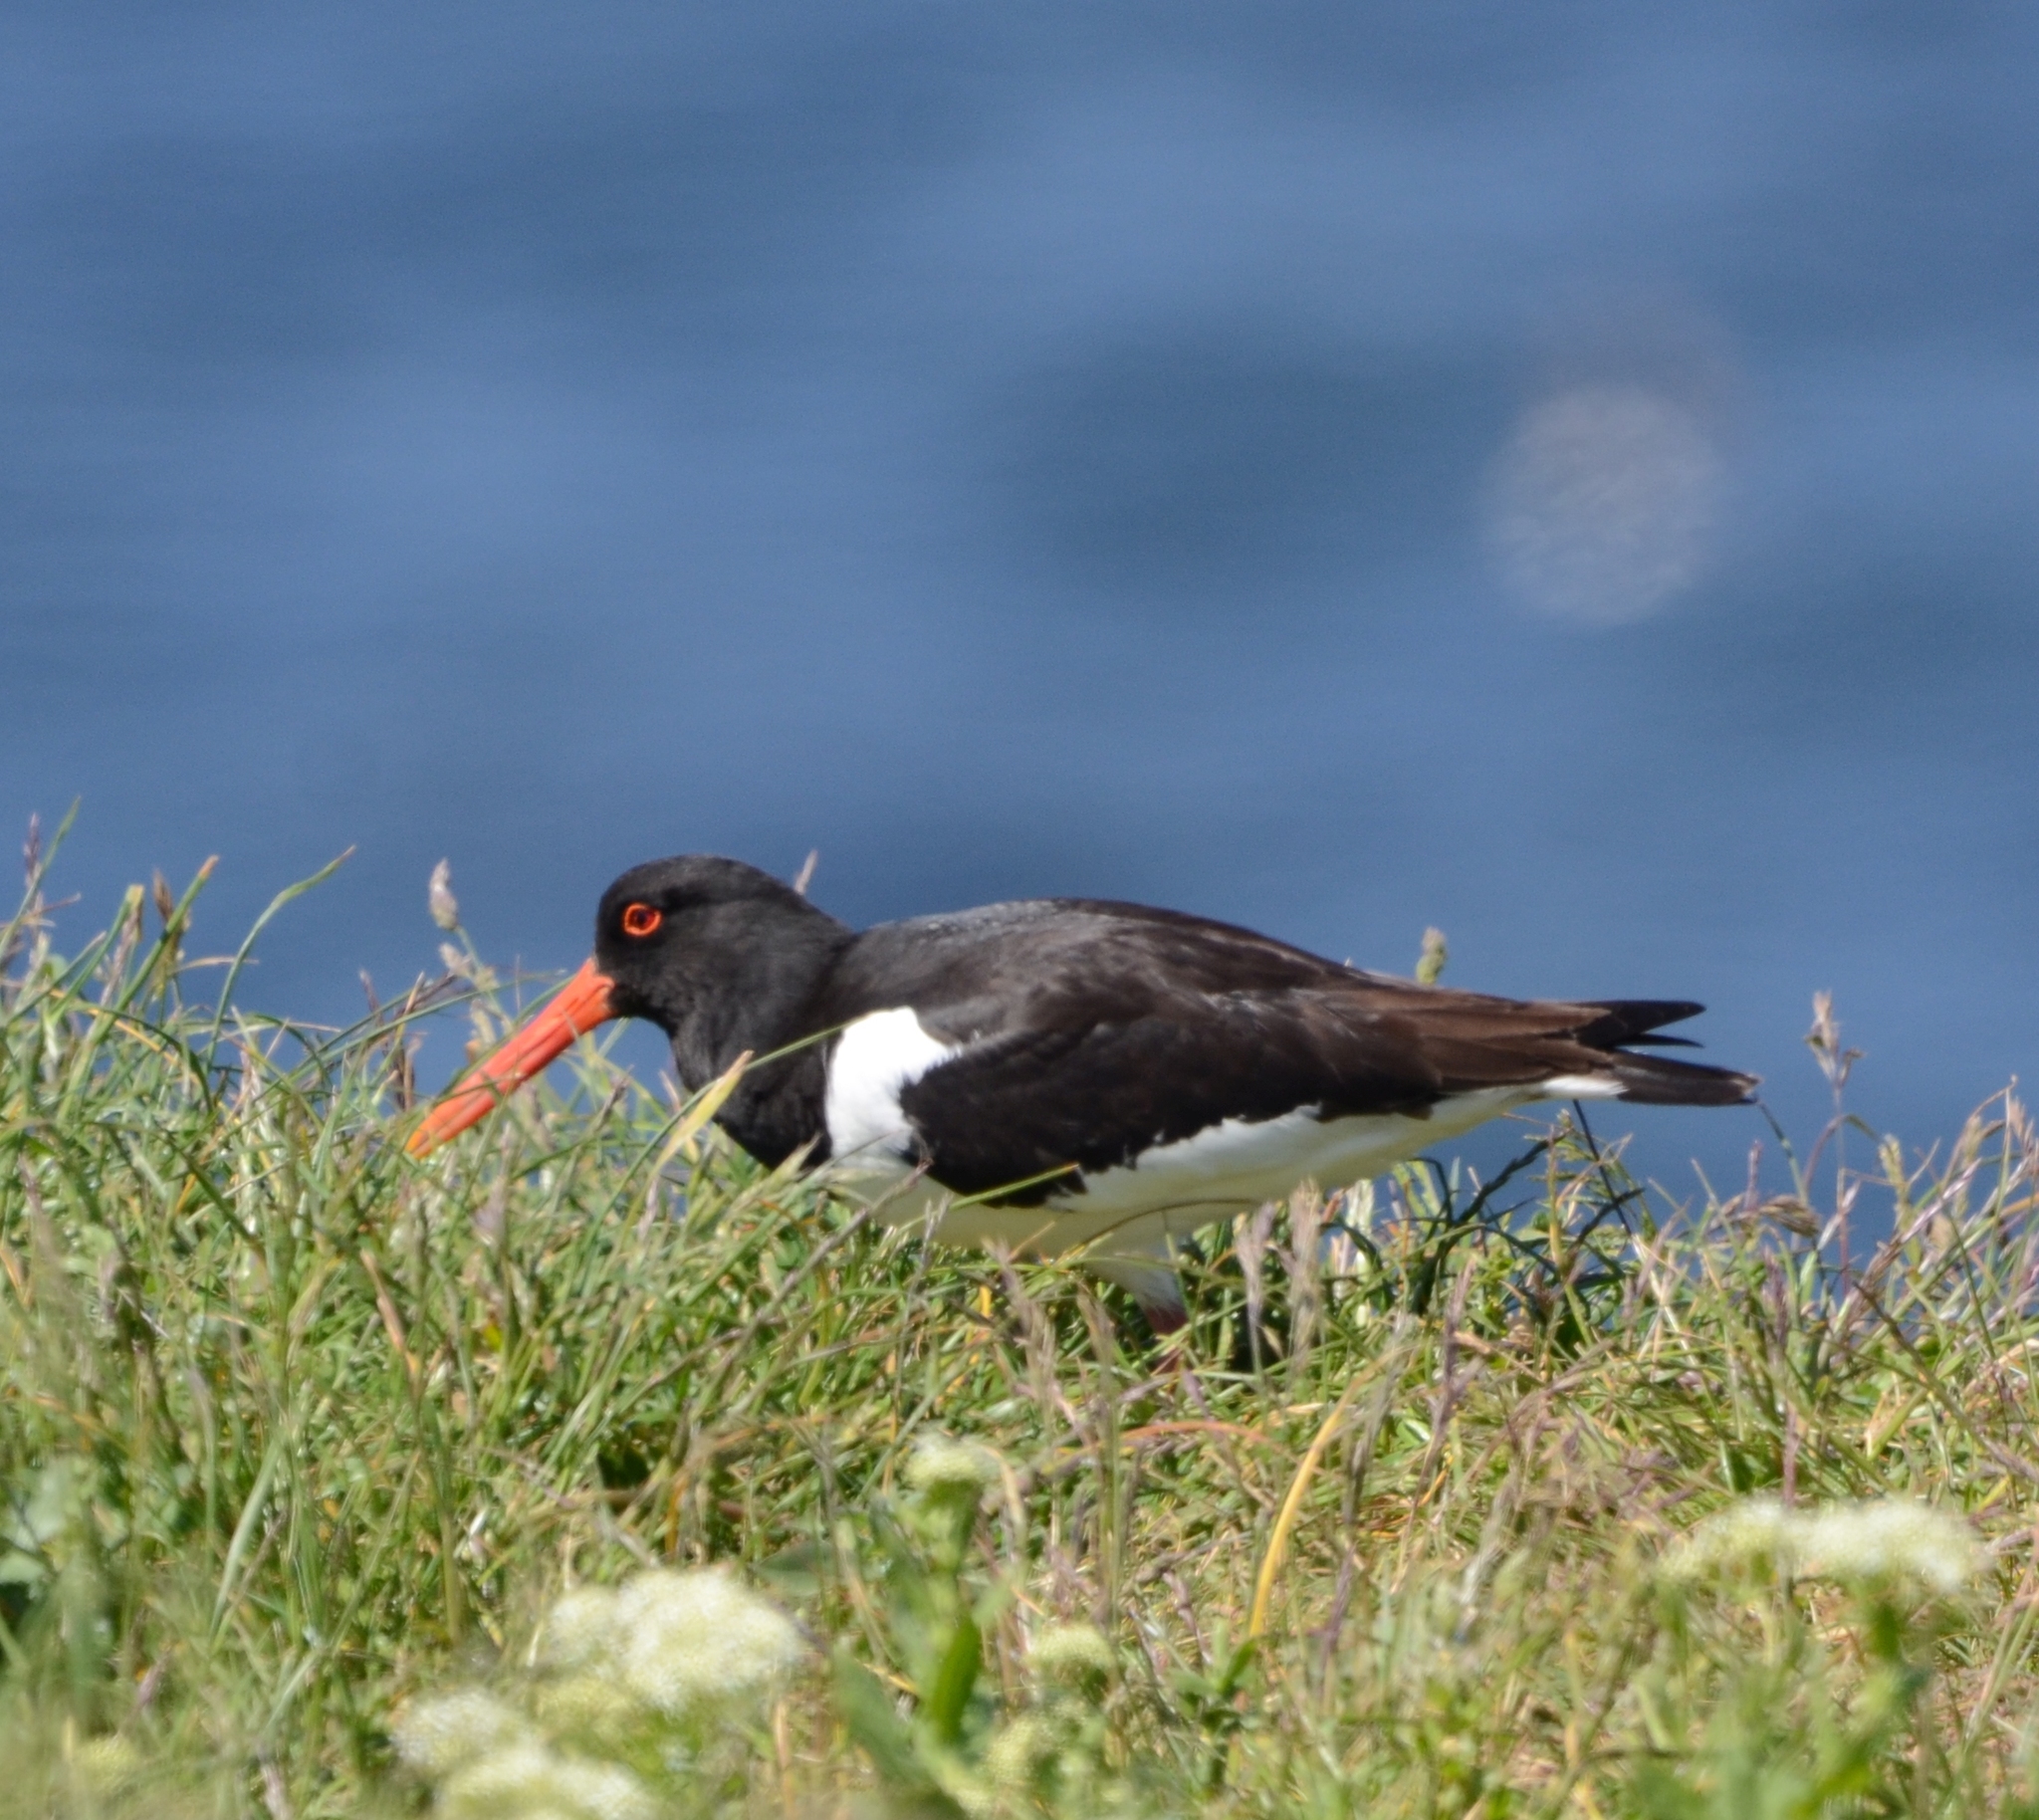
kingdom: Animalia
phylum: Chordata
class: Aves
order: Charadriiformes
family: Haematopodidae
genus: Haematopus
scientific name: Haematopus ostralegus
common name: Eurasian oystercatcher
